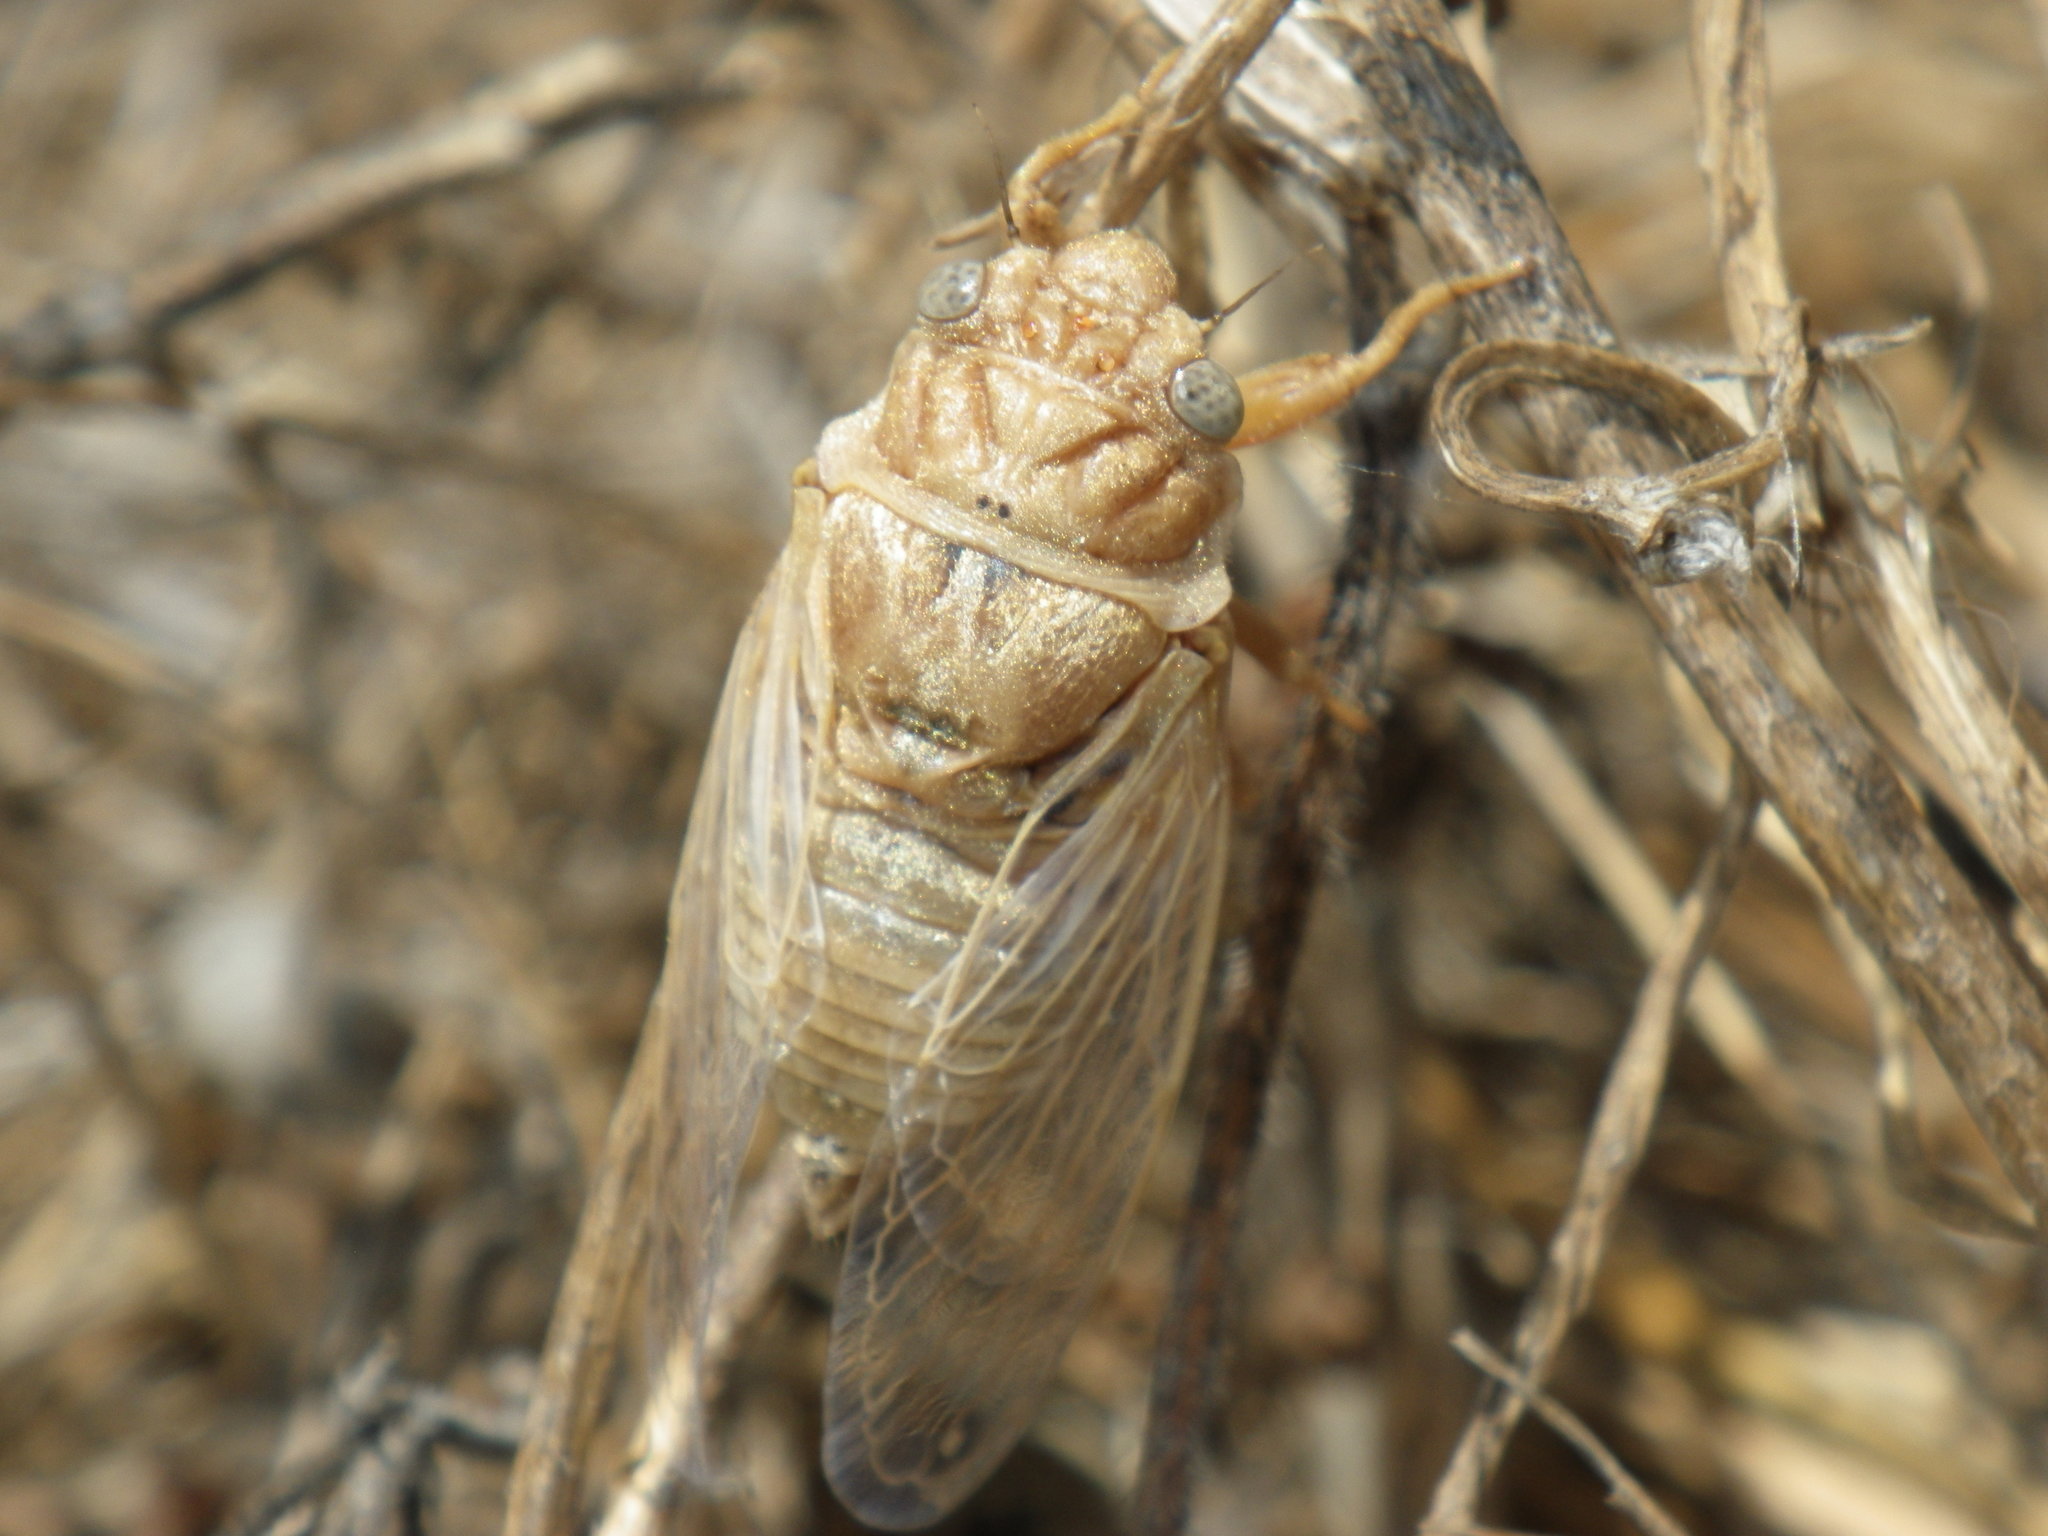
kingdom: Animalia
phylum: Arthropoda
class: Insecta
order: Hemiptera
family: Cicadidae
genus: Tibicinoides
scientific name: Tibicinoides
